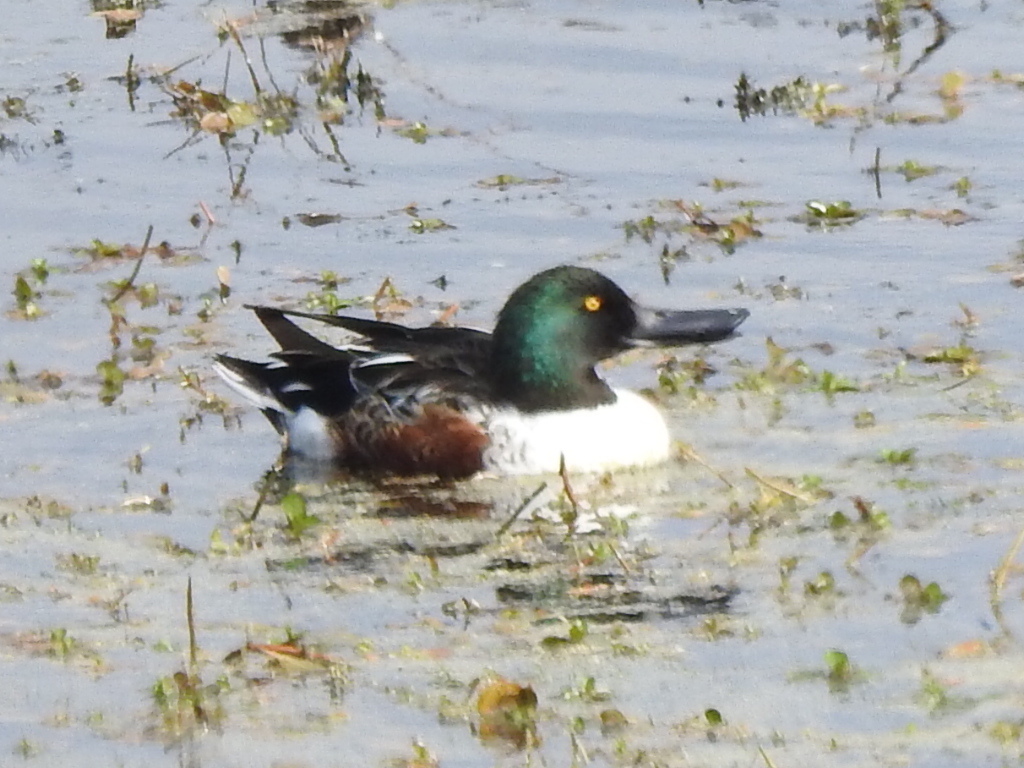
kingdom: Animalia
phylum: Chordata
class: Aves
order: Anseriformes
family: Anatidae
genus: Spatula
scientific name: Spatula clypeata
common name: Northern shoveler
